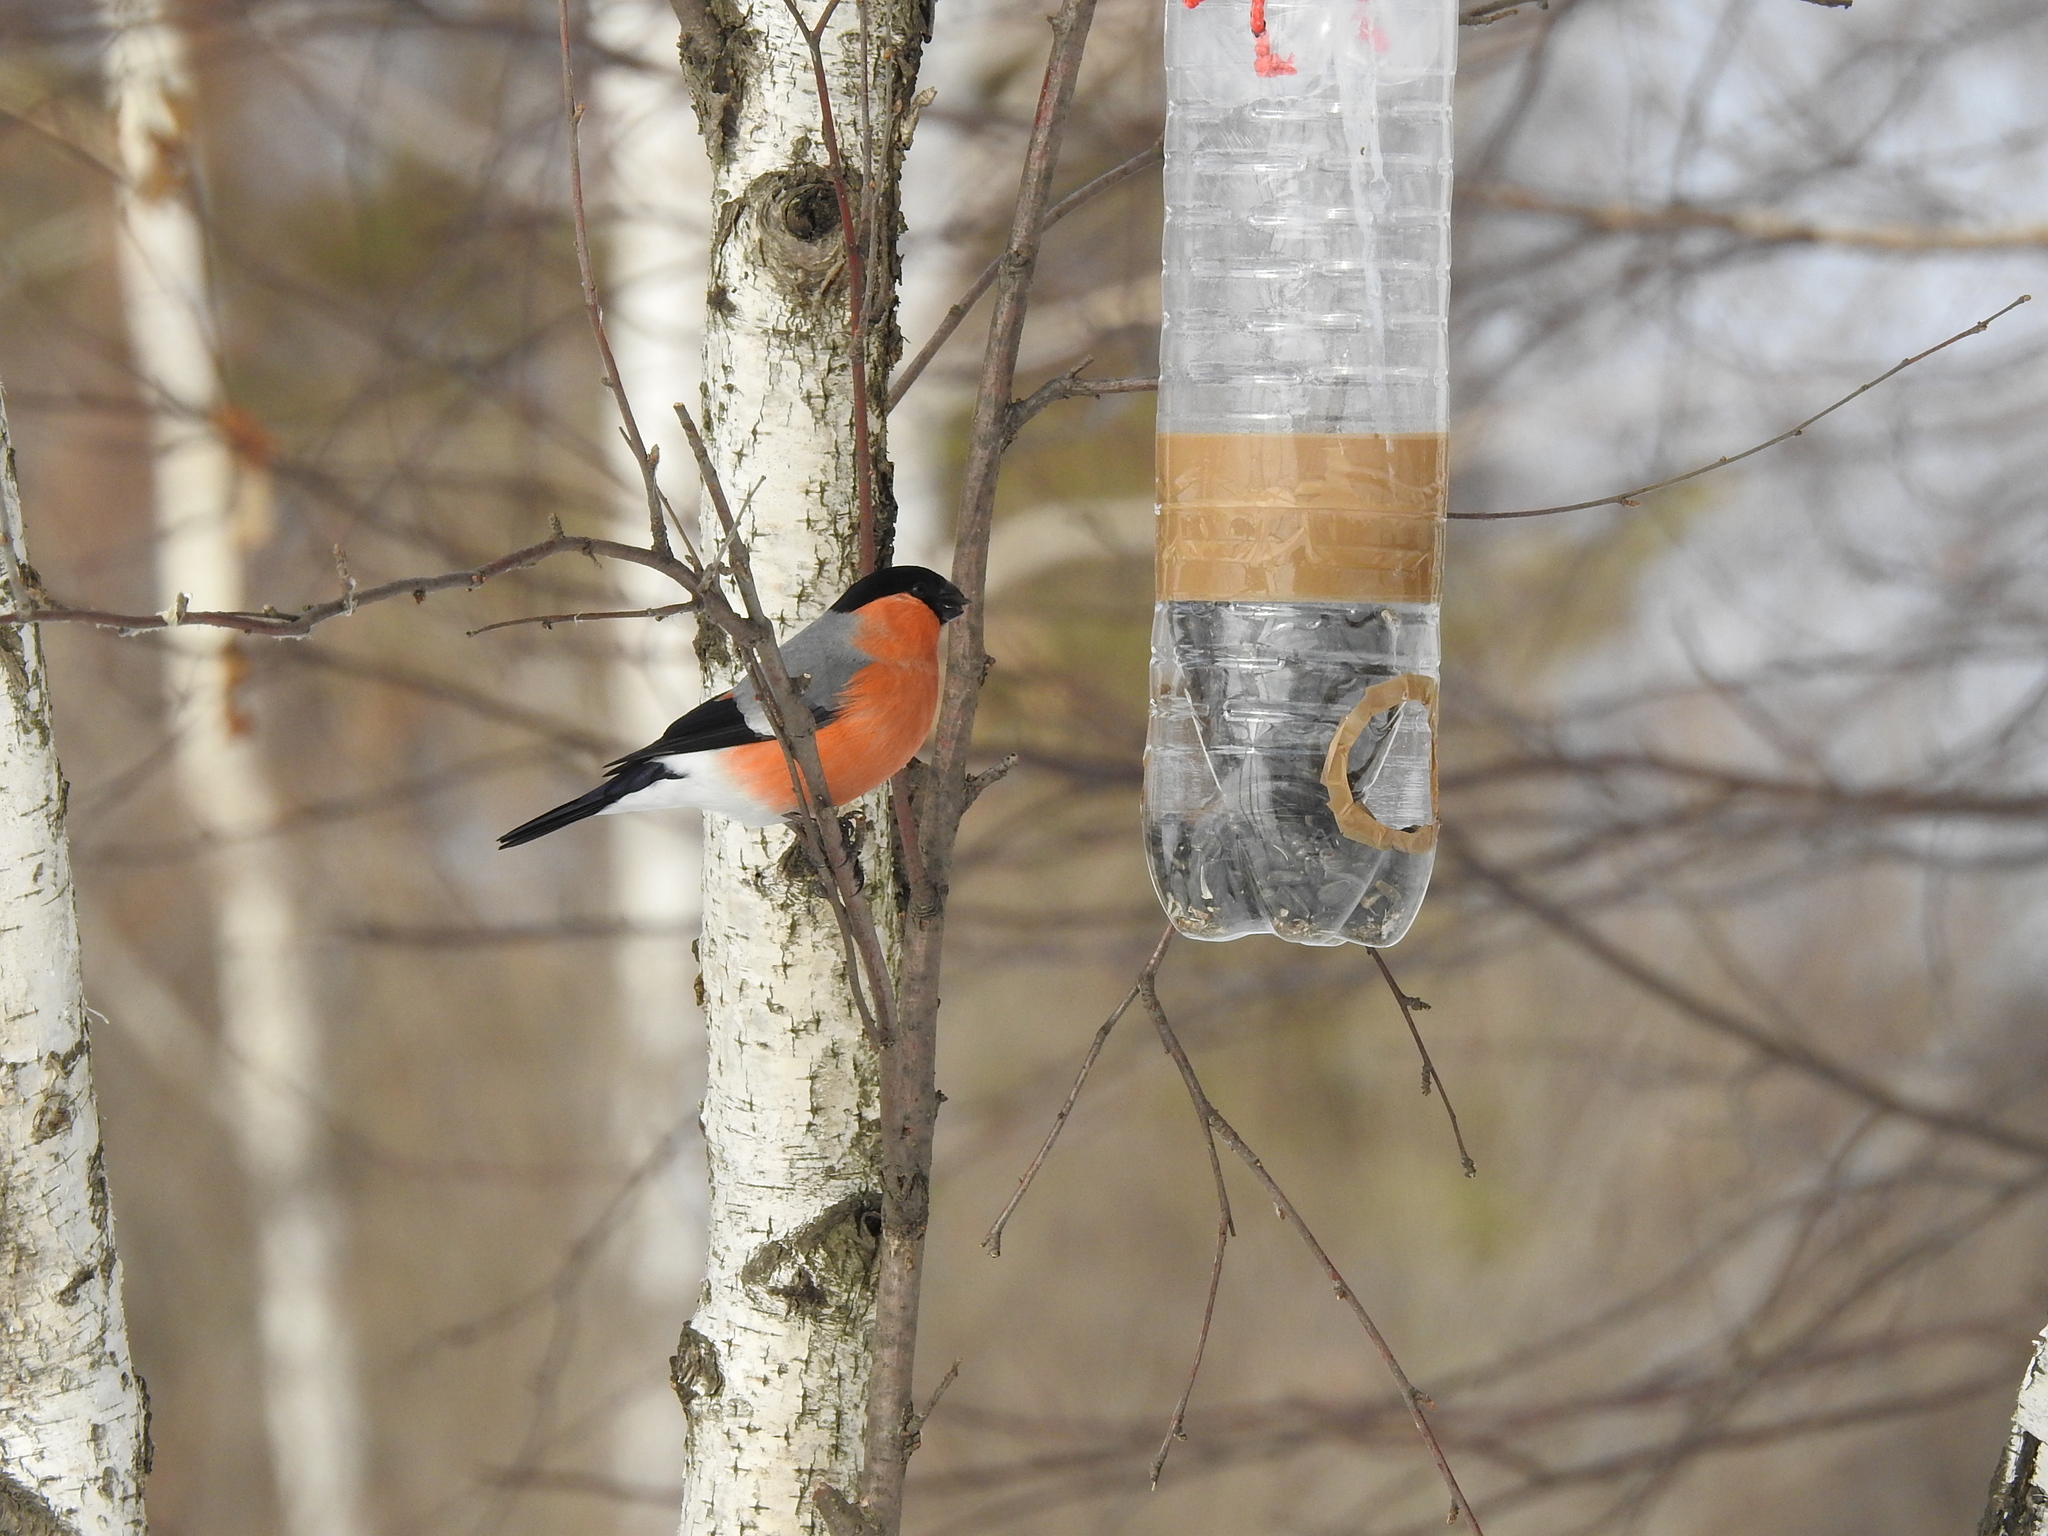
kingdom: Animalia
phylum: Chordata
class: Aves
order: Passeriformes
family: Fringillidae
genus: Pyrrhula
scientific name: Pyrrhula pyrrhula
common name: Eurasian bullfinch
